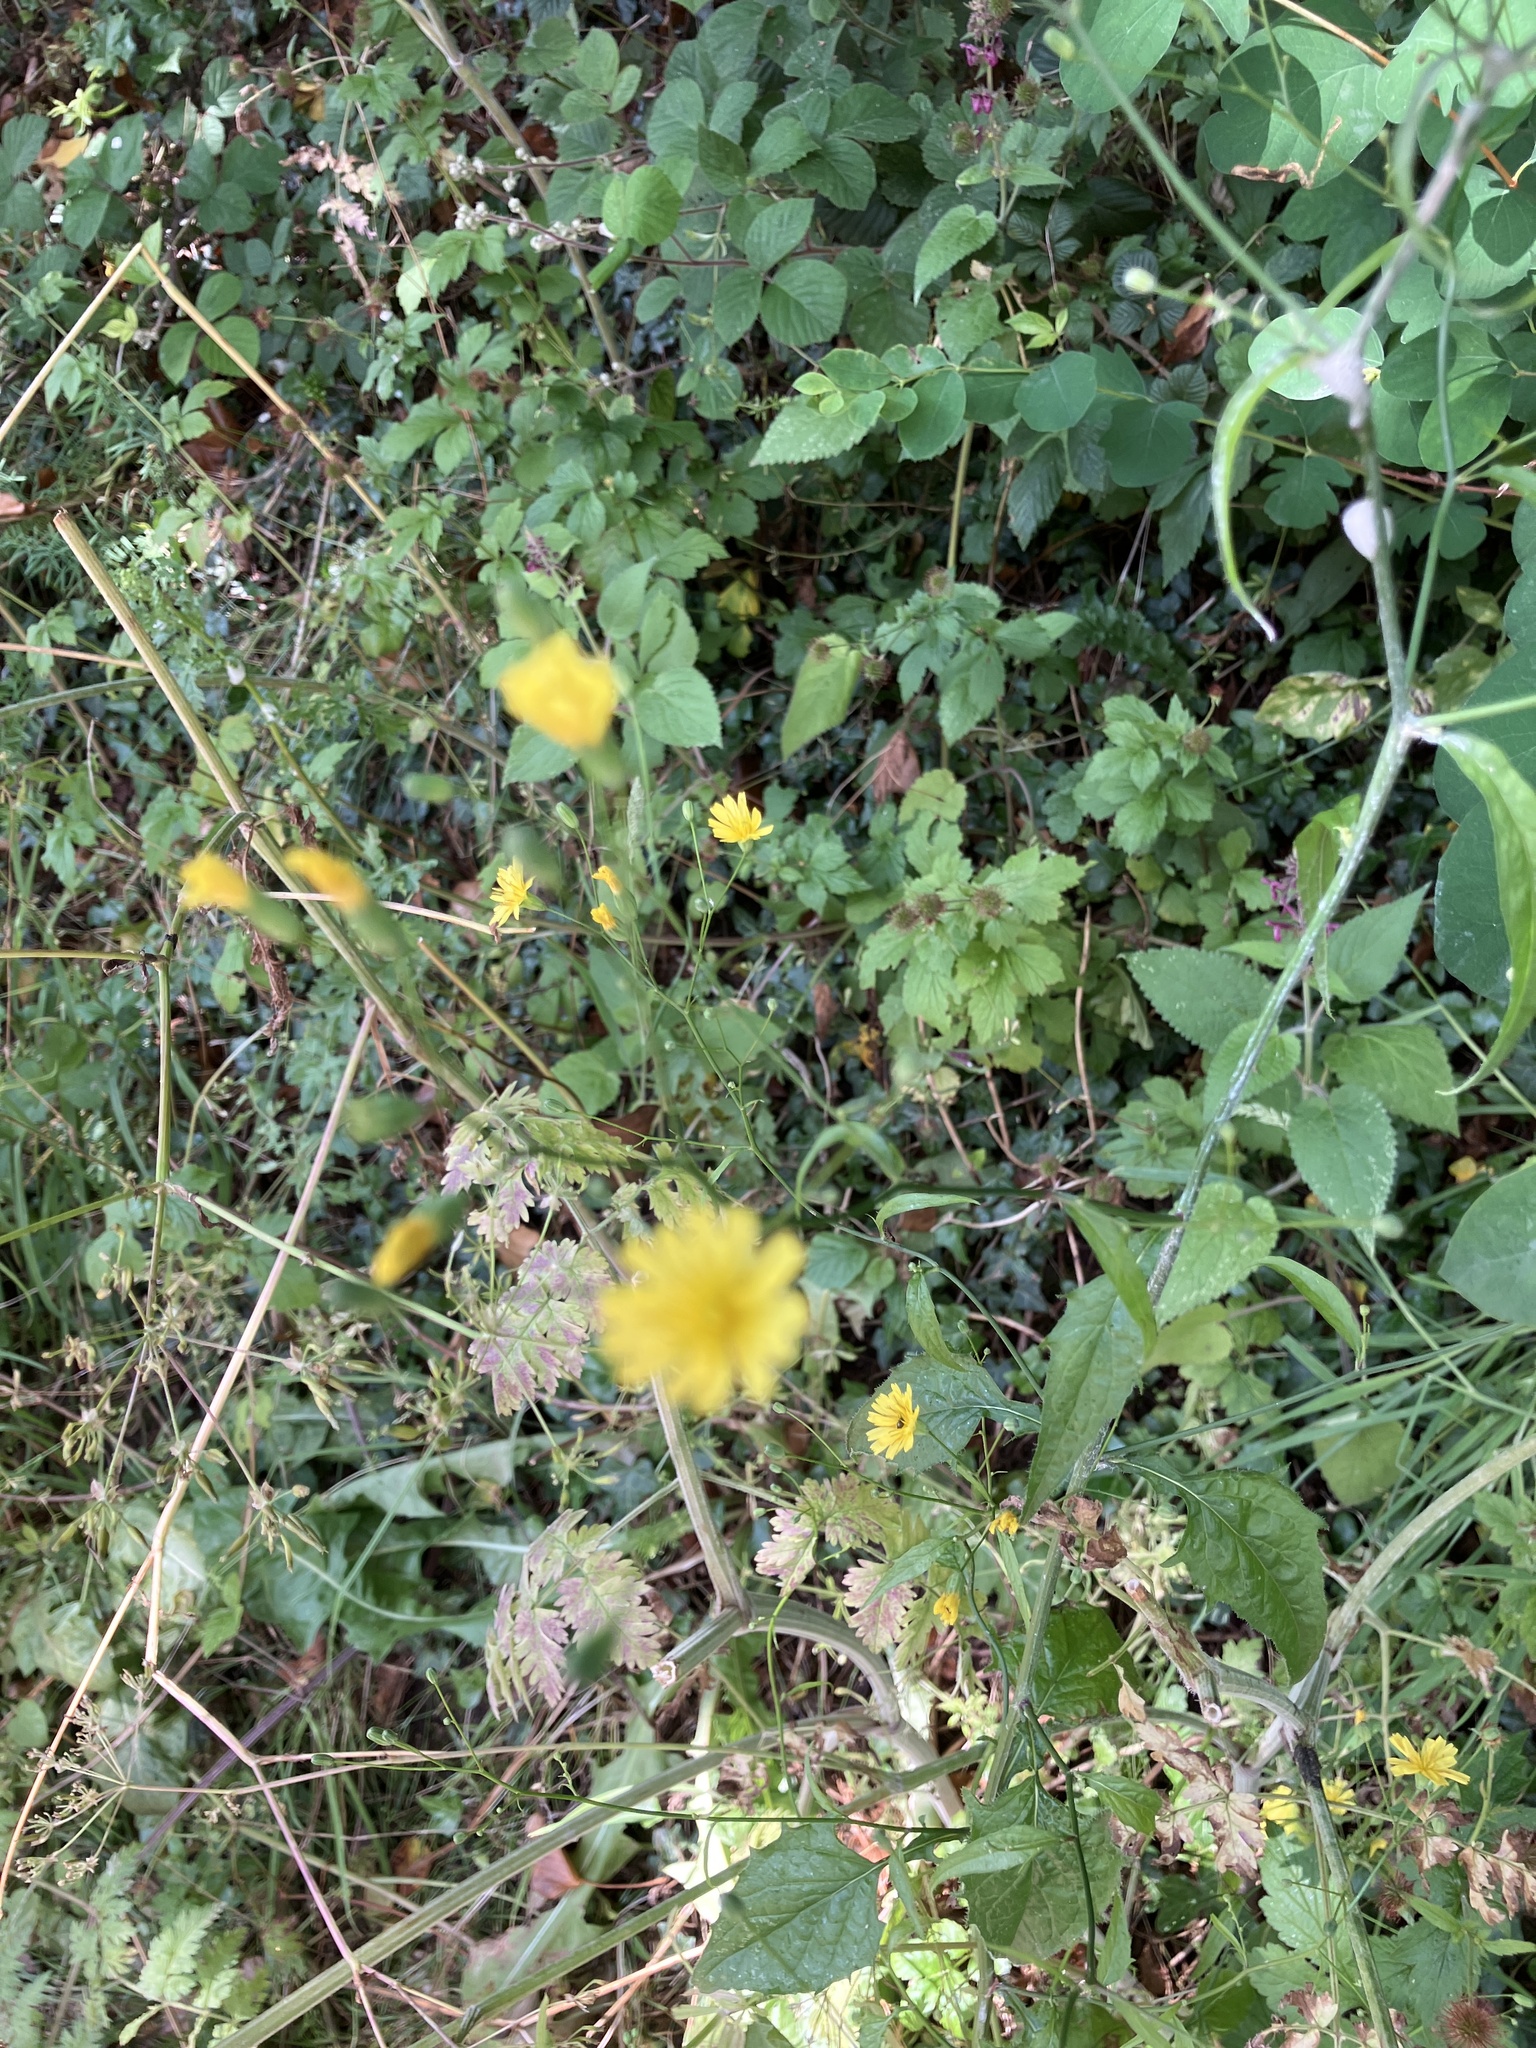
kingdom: Plantae
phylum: Tracheophyta
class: Magnoliopsida
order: Asterales
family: Asteraceae
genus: Lapsana
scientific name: Lapsana communis
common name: Nipplewort
